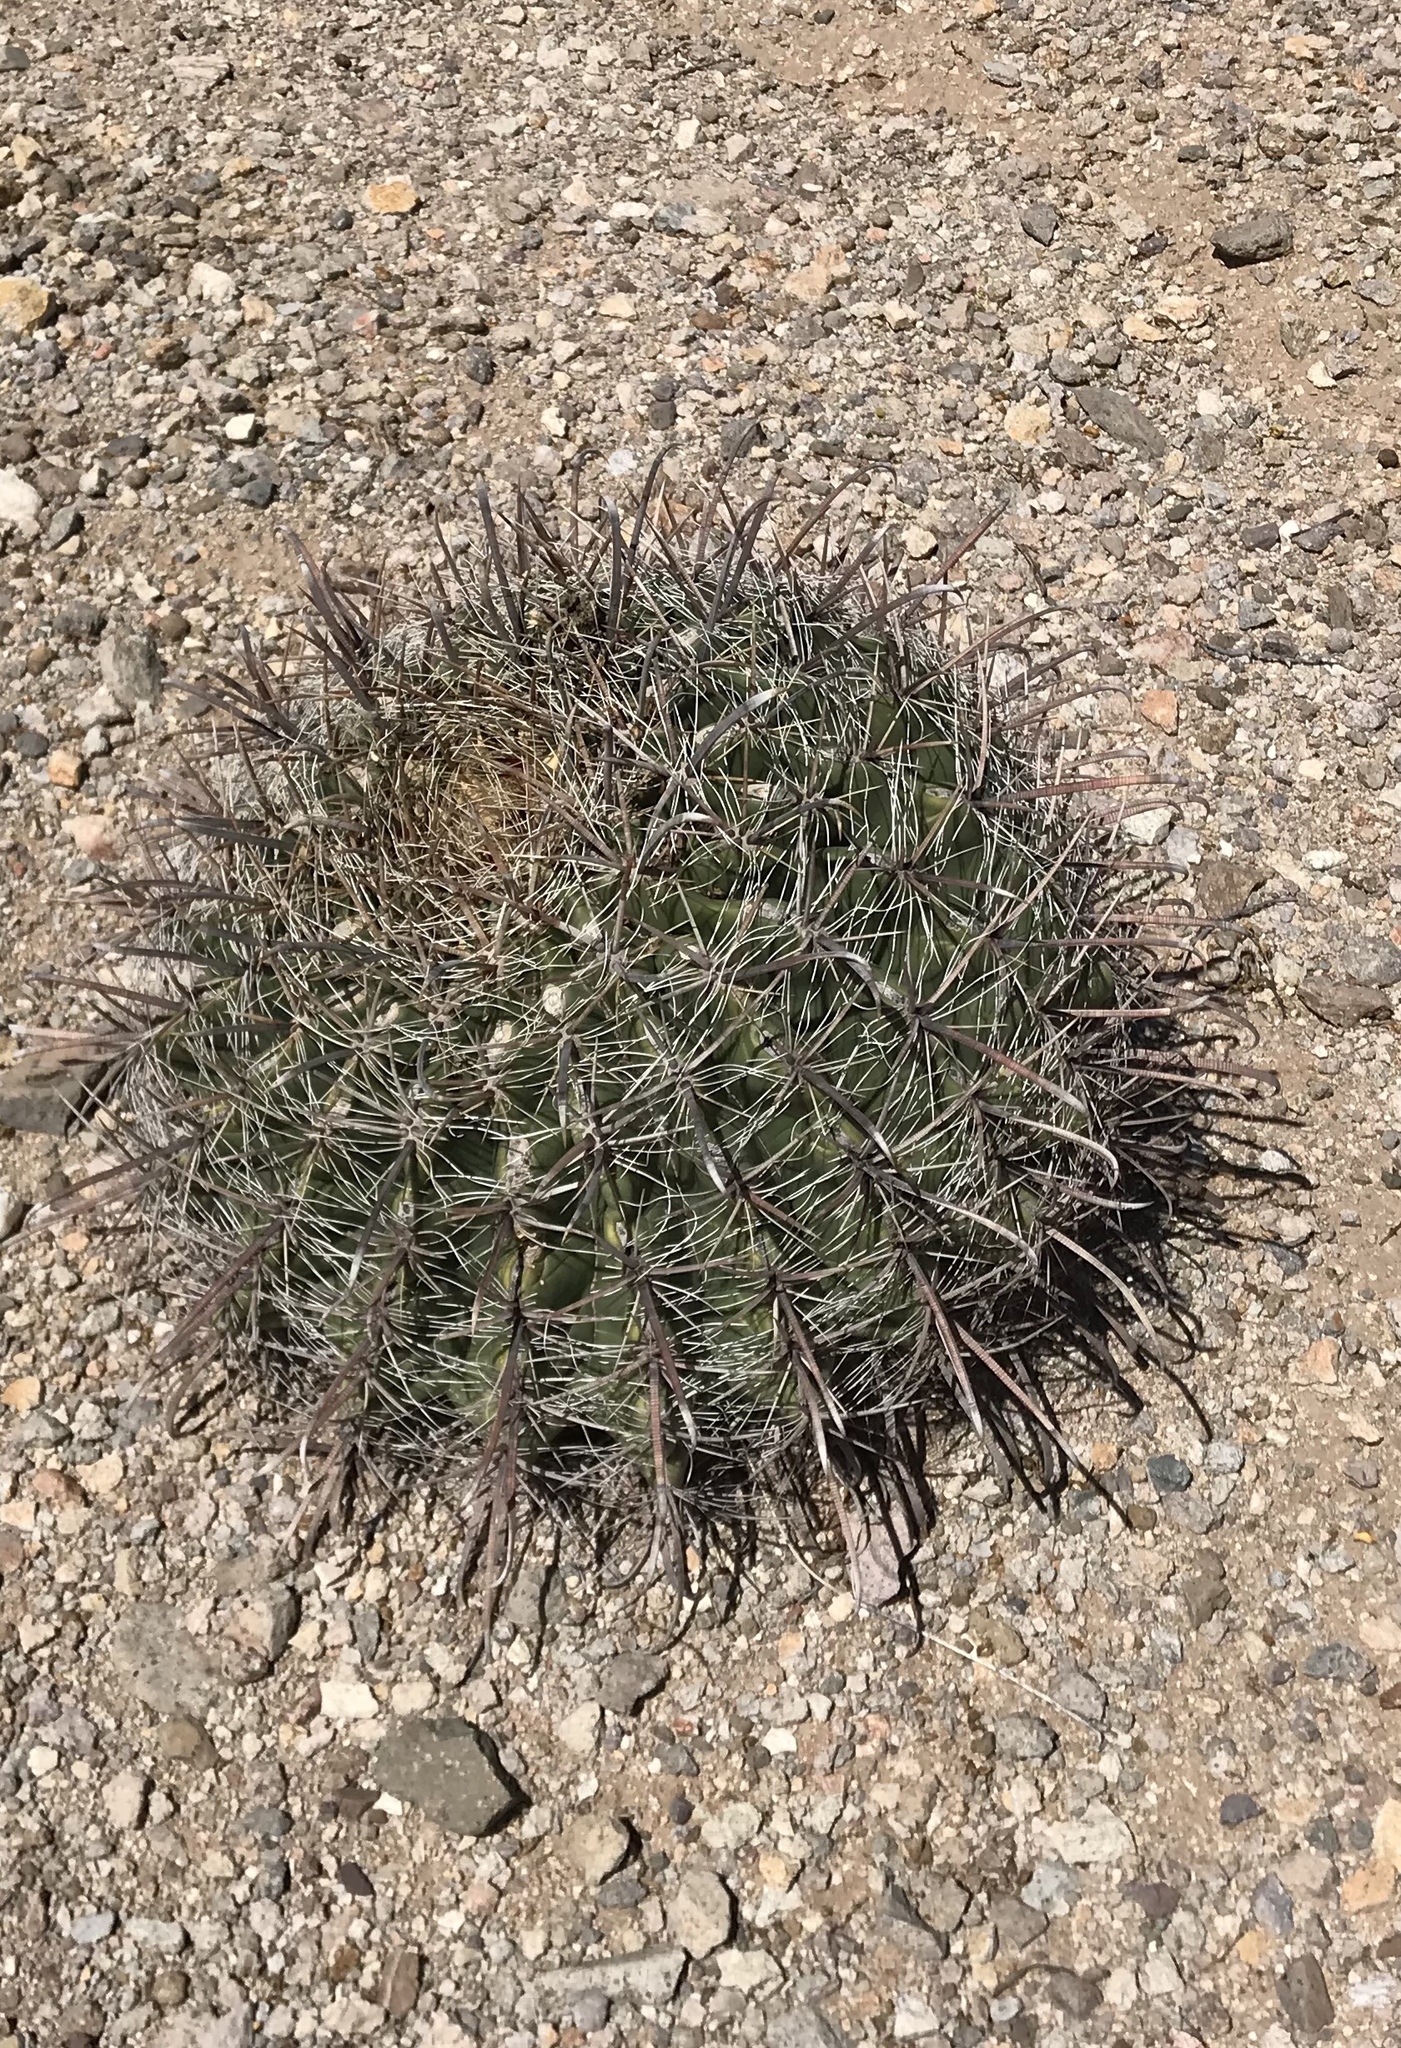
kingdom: Plantae
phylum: Tracheophyta
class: Magnoliopsida
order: Caryophyllales
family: Cactaceae
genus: Ferocactus
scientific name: Ferocactus wislizeni
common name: Candy barrel cactus
